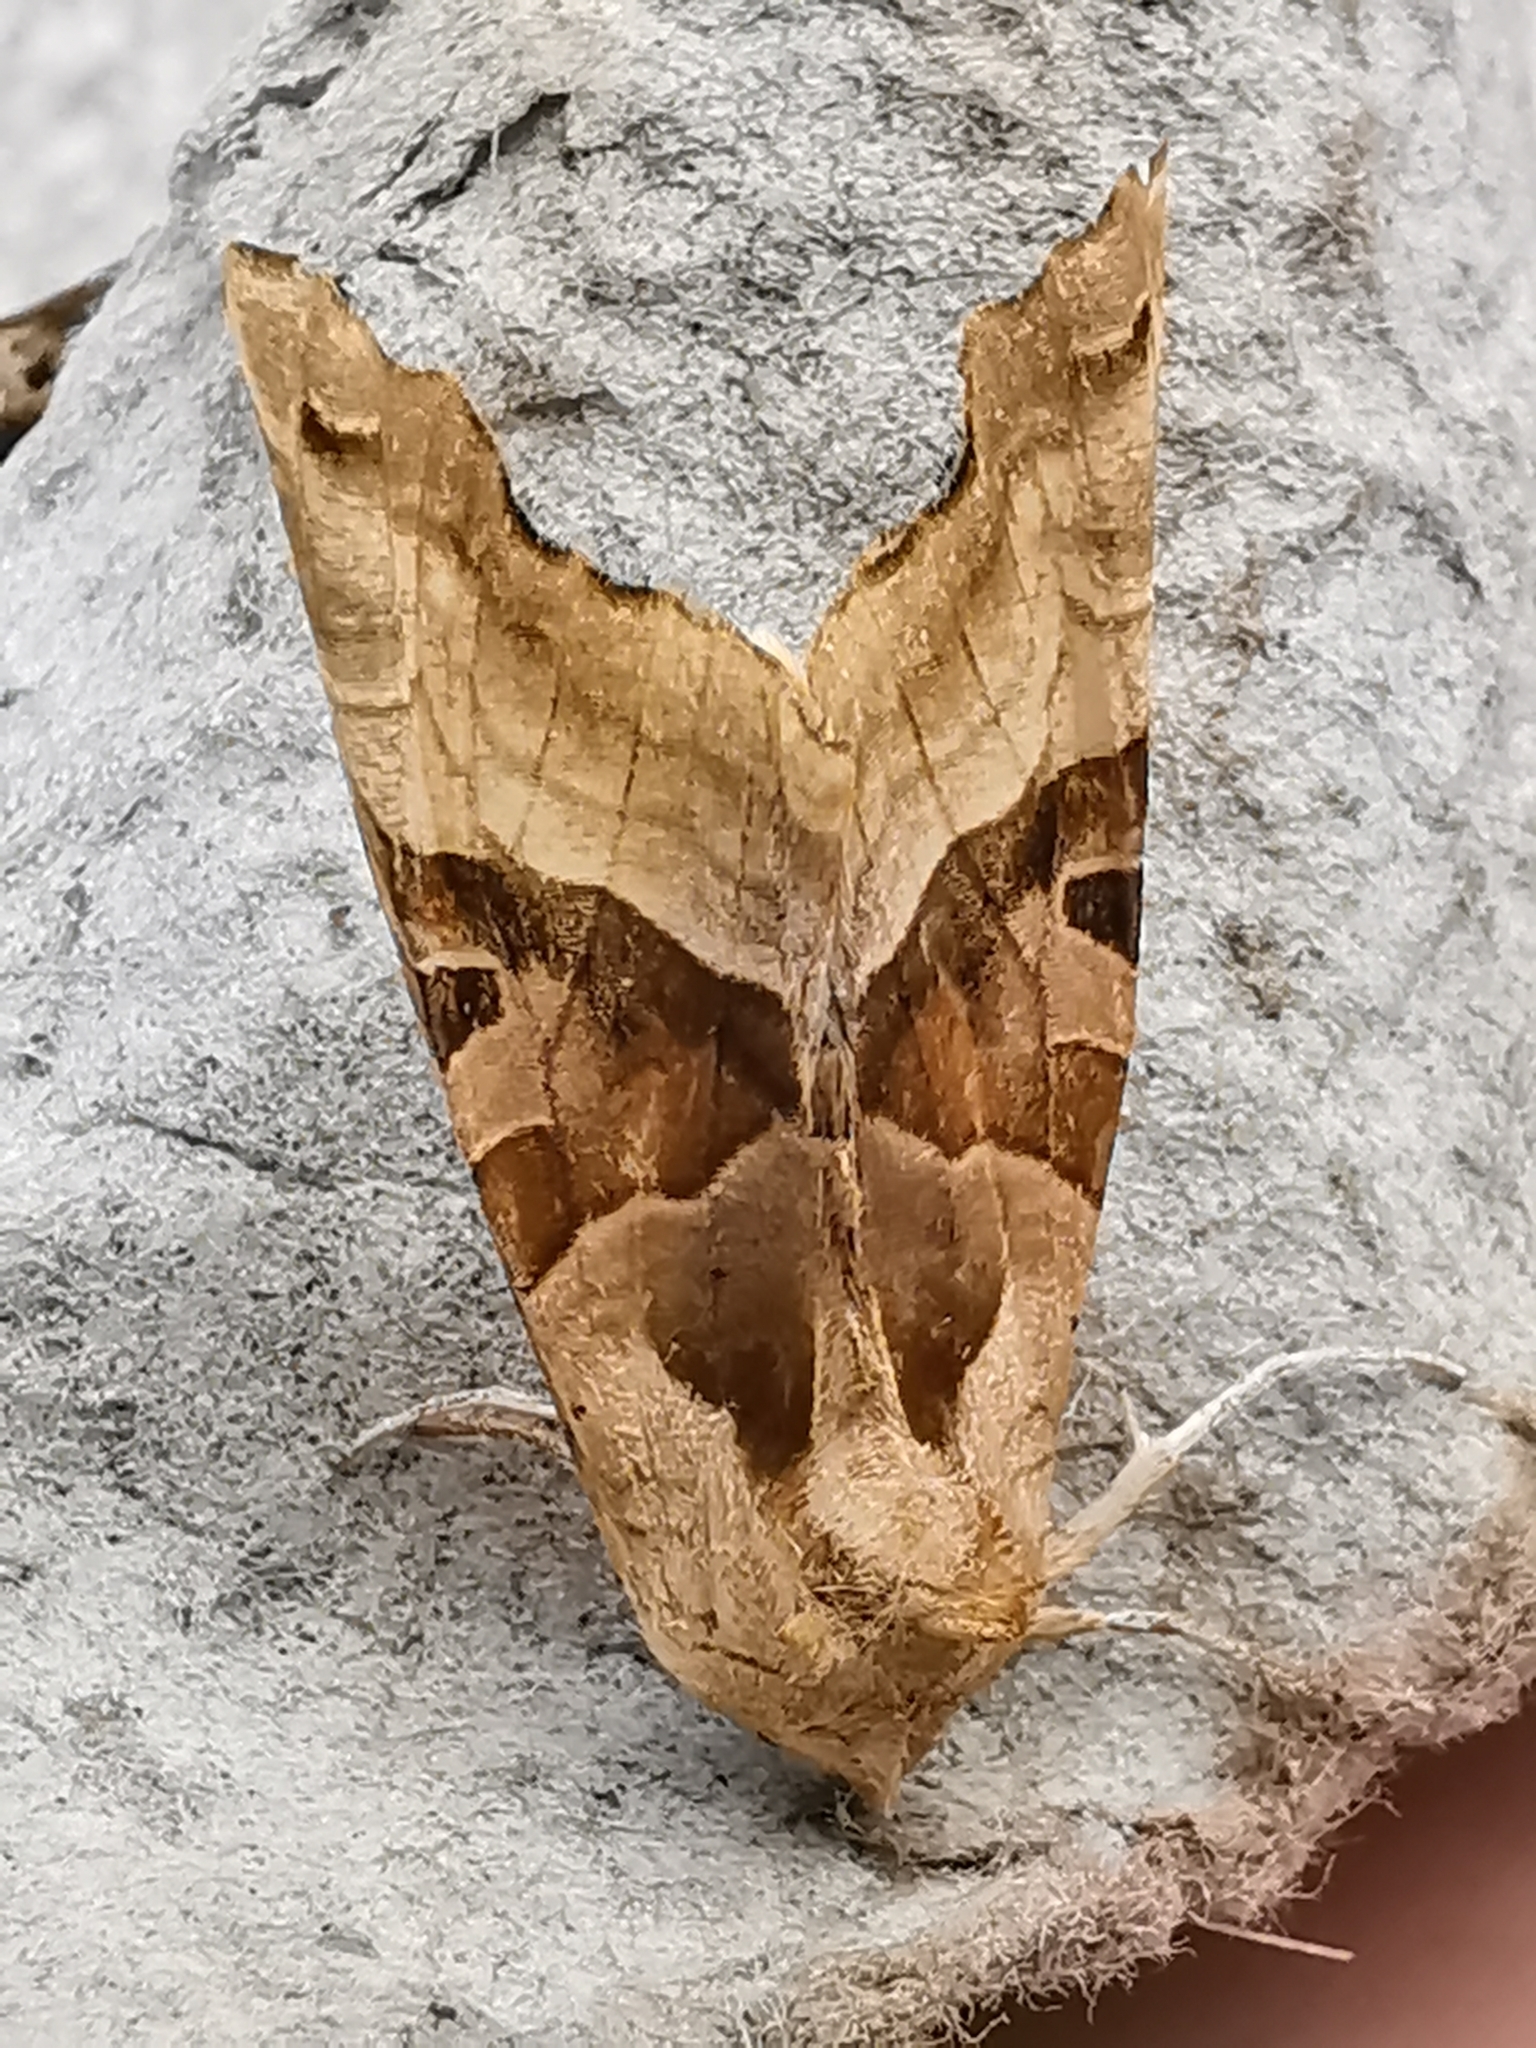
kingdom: Animalia
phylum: Arthropoda
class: Insecta
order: Lepidoptera
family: Noctuidae
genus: Phlogophora
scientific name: Phlogophora meticulosa
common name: Angle shades
